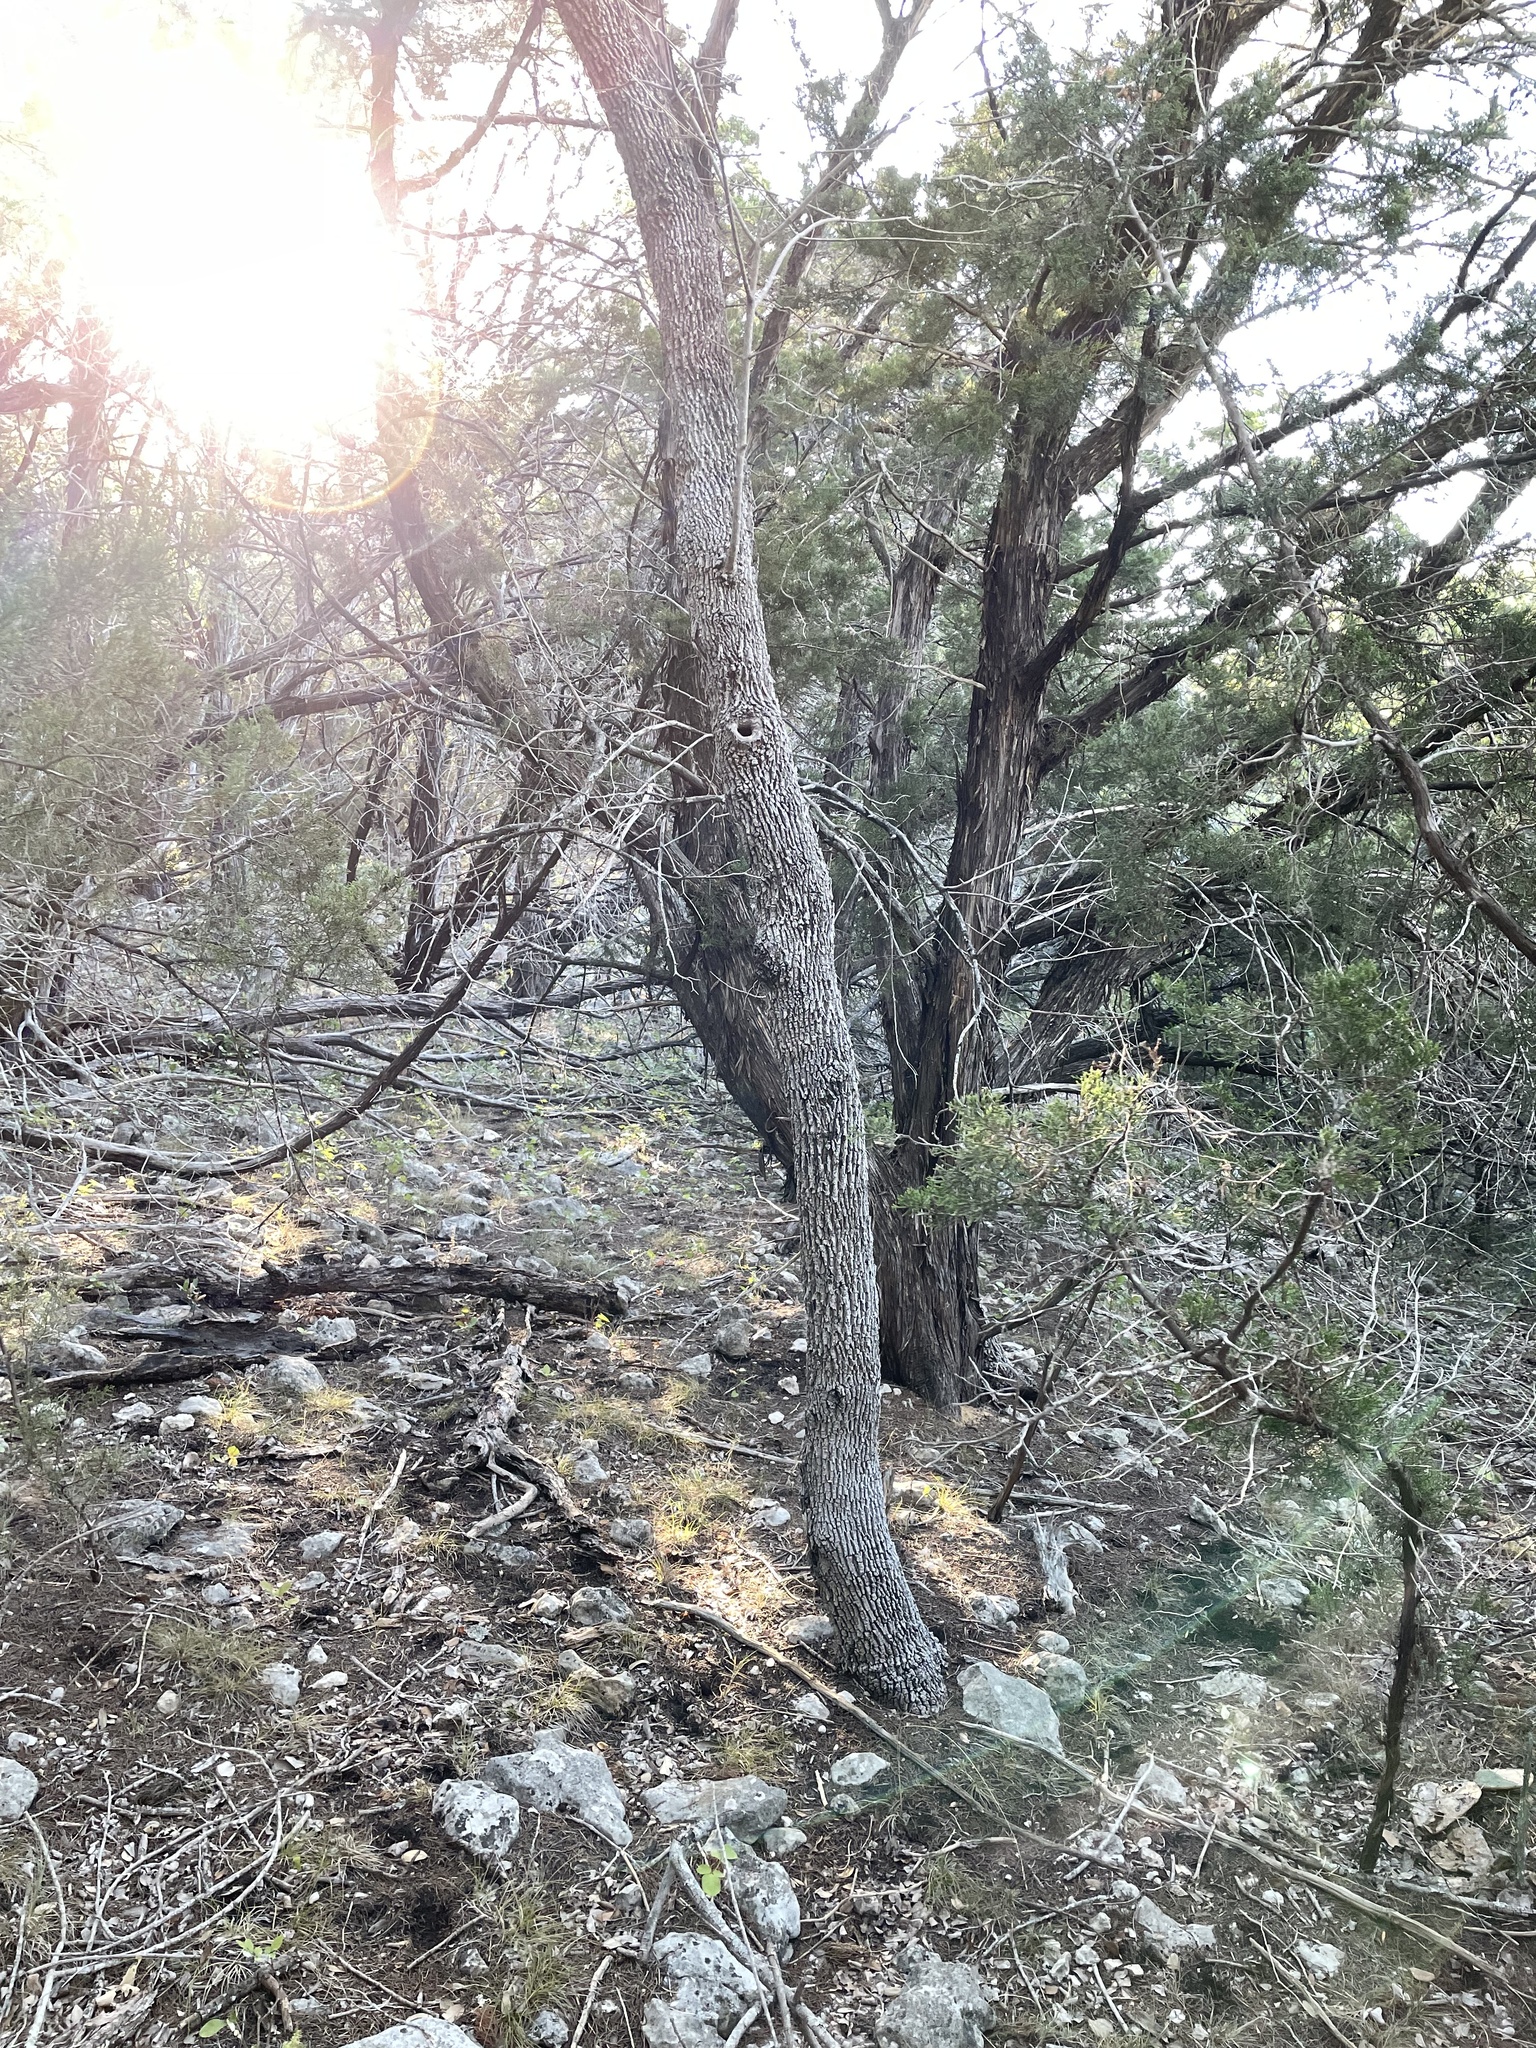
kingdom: Plantae
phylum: Tracheophyta
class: Magnoliopsida
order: Lamiales
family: Oleaceae
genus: Fraxinus
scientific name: Fraxinus albicans
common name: Texas ash
